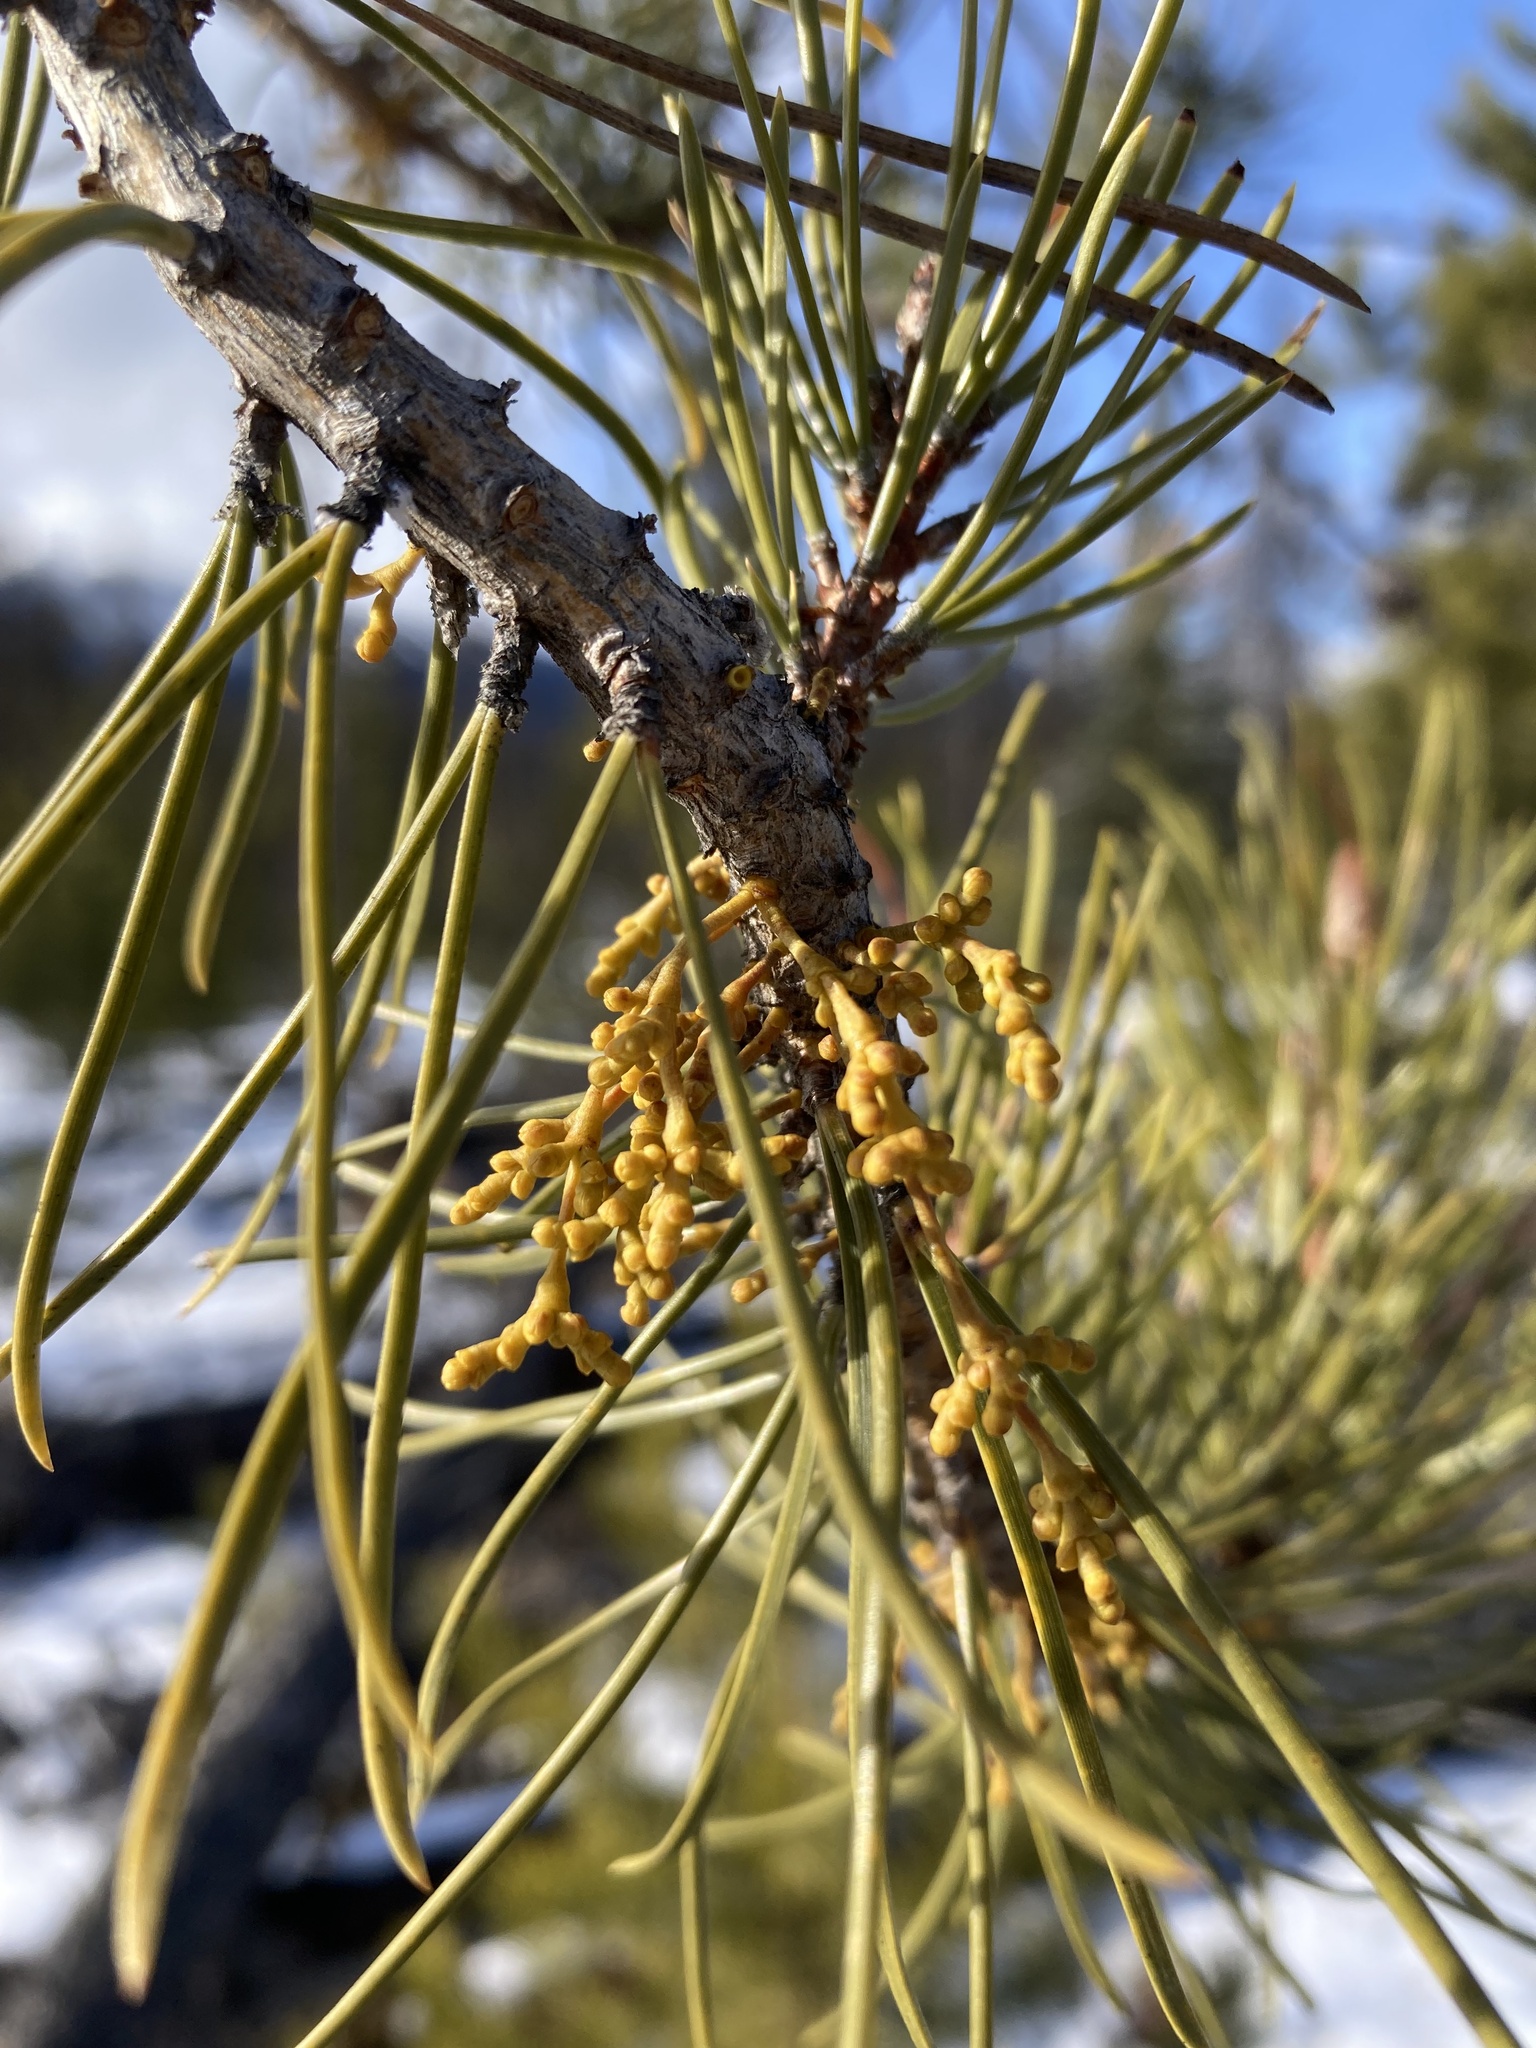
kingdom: Plantae
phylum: Tracheophyta
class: Magnoliopsida
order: Santalales
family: Viscaceae
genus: Arceuthobium
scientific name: Arceuthobium americanum
